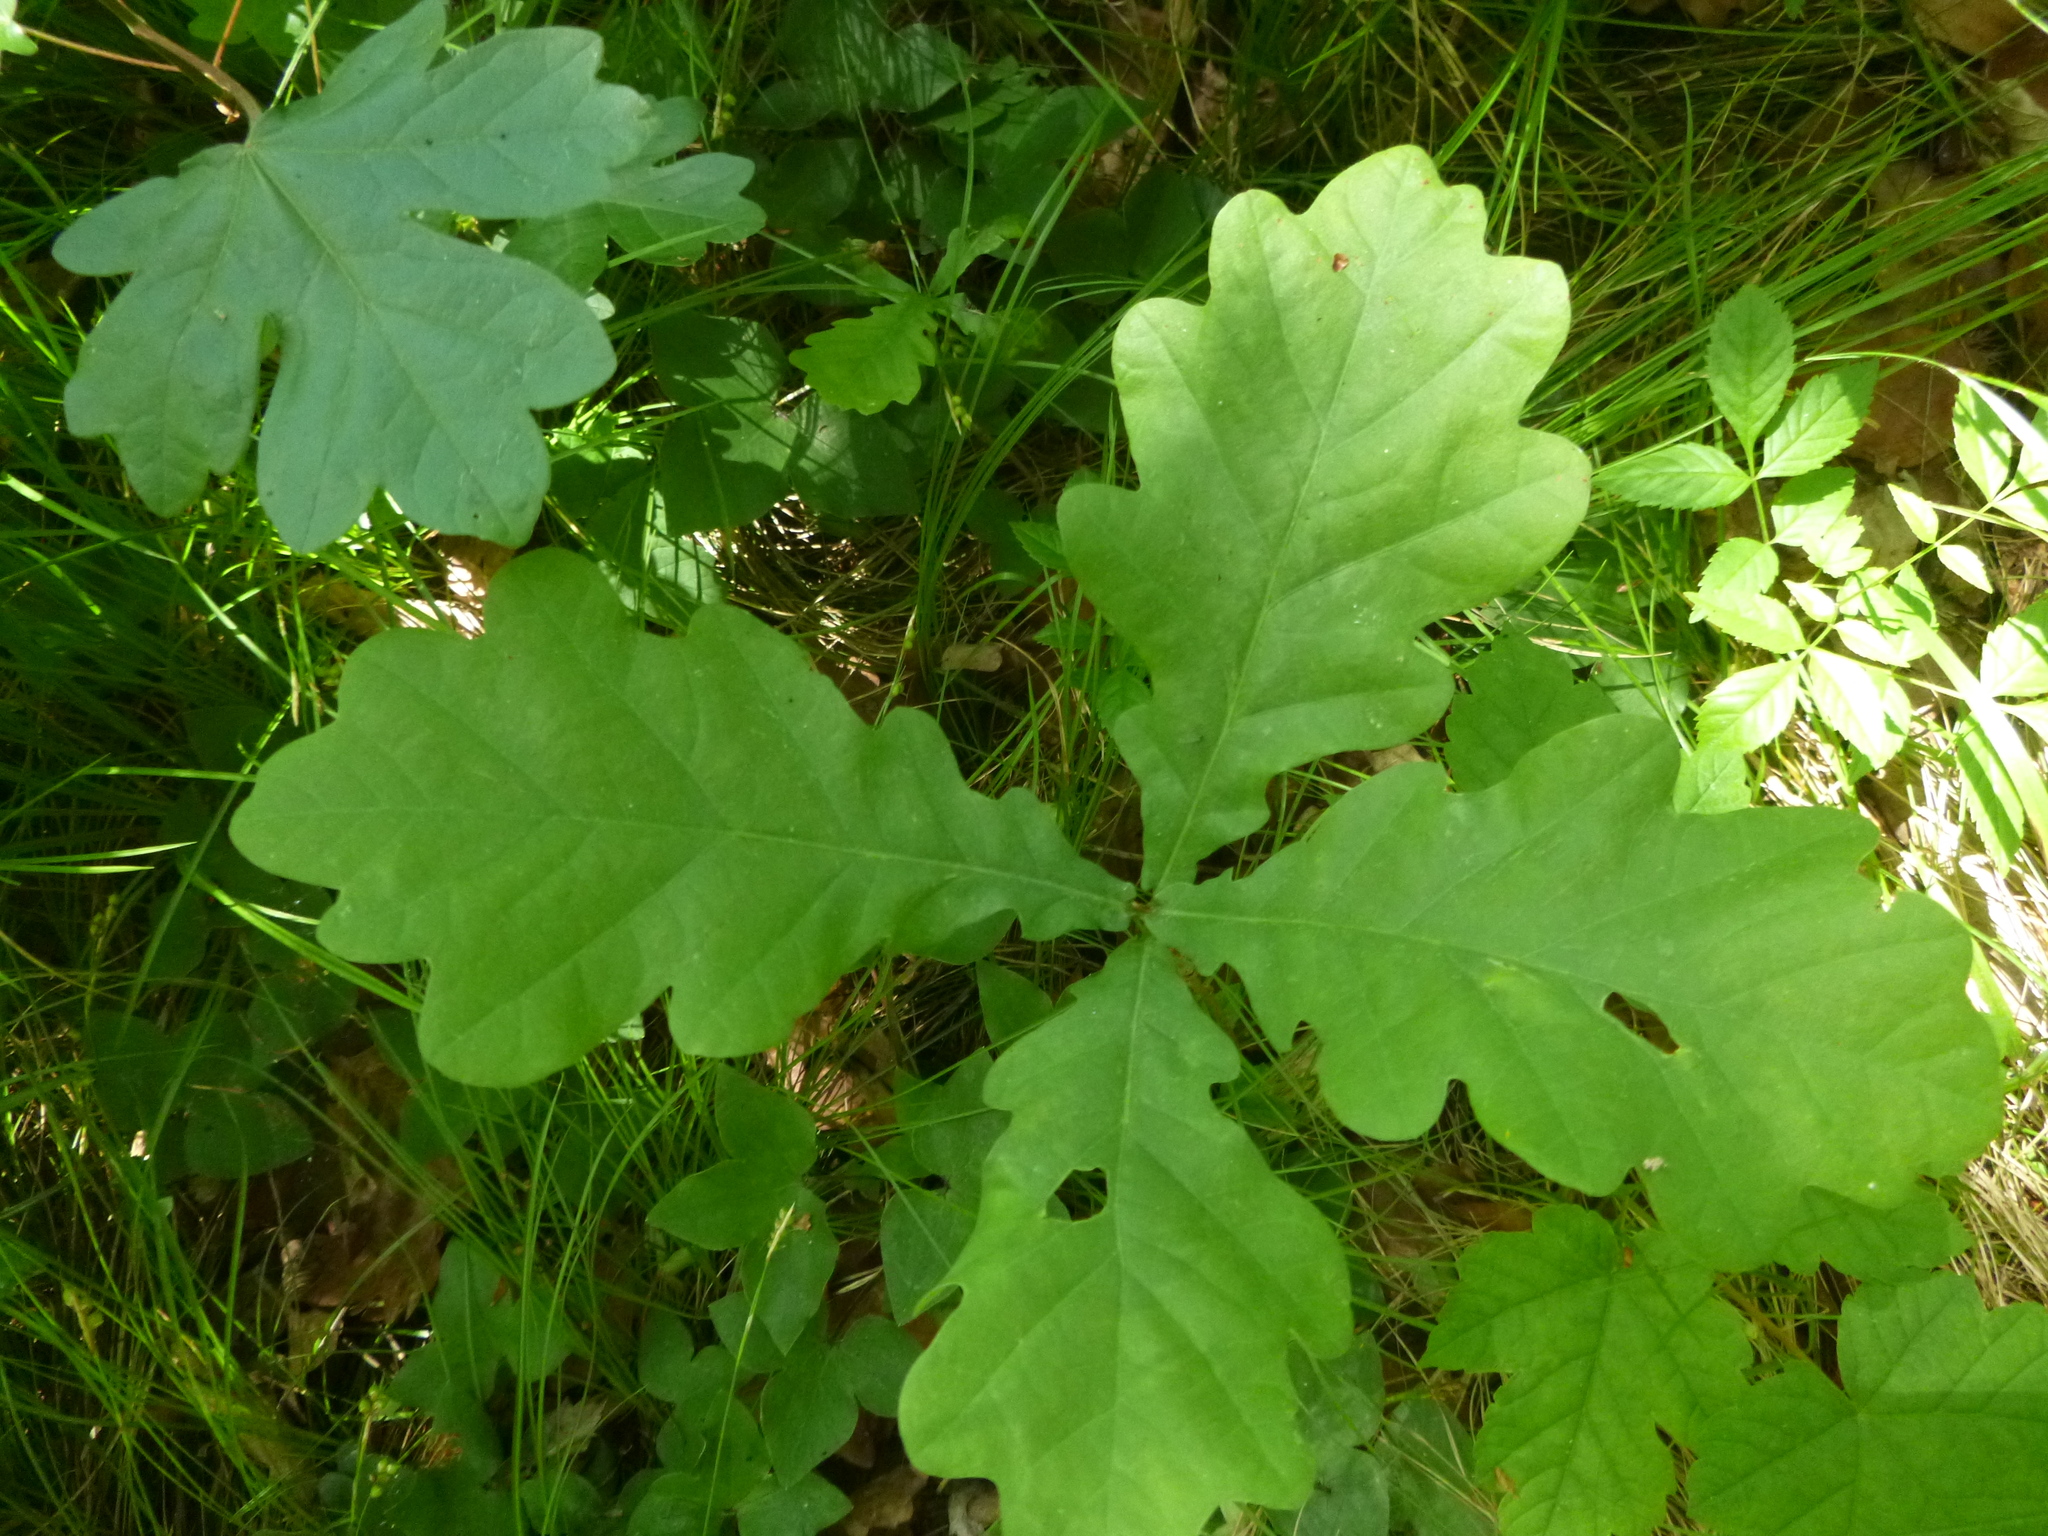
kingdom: Plantae
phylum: Tracheophyta
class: Magnoliopsida
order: Fagales
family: Fagaceae
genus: Quercus
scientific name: Quercus robur
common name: Pedunculate oak
